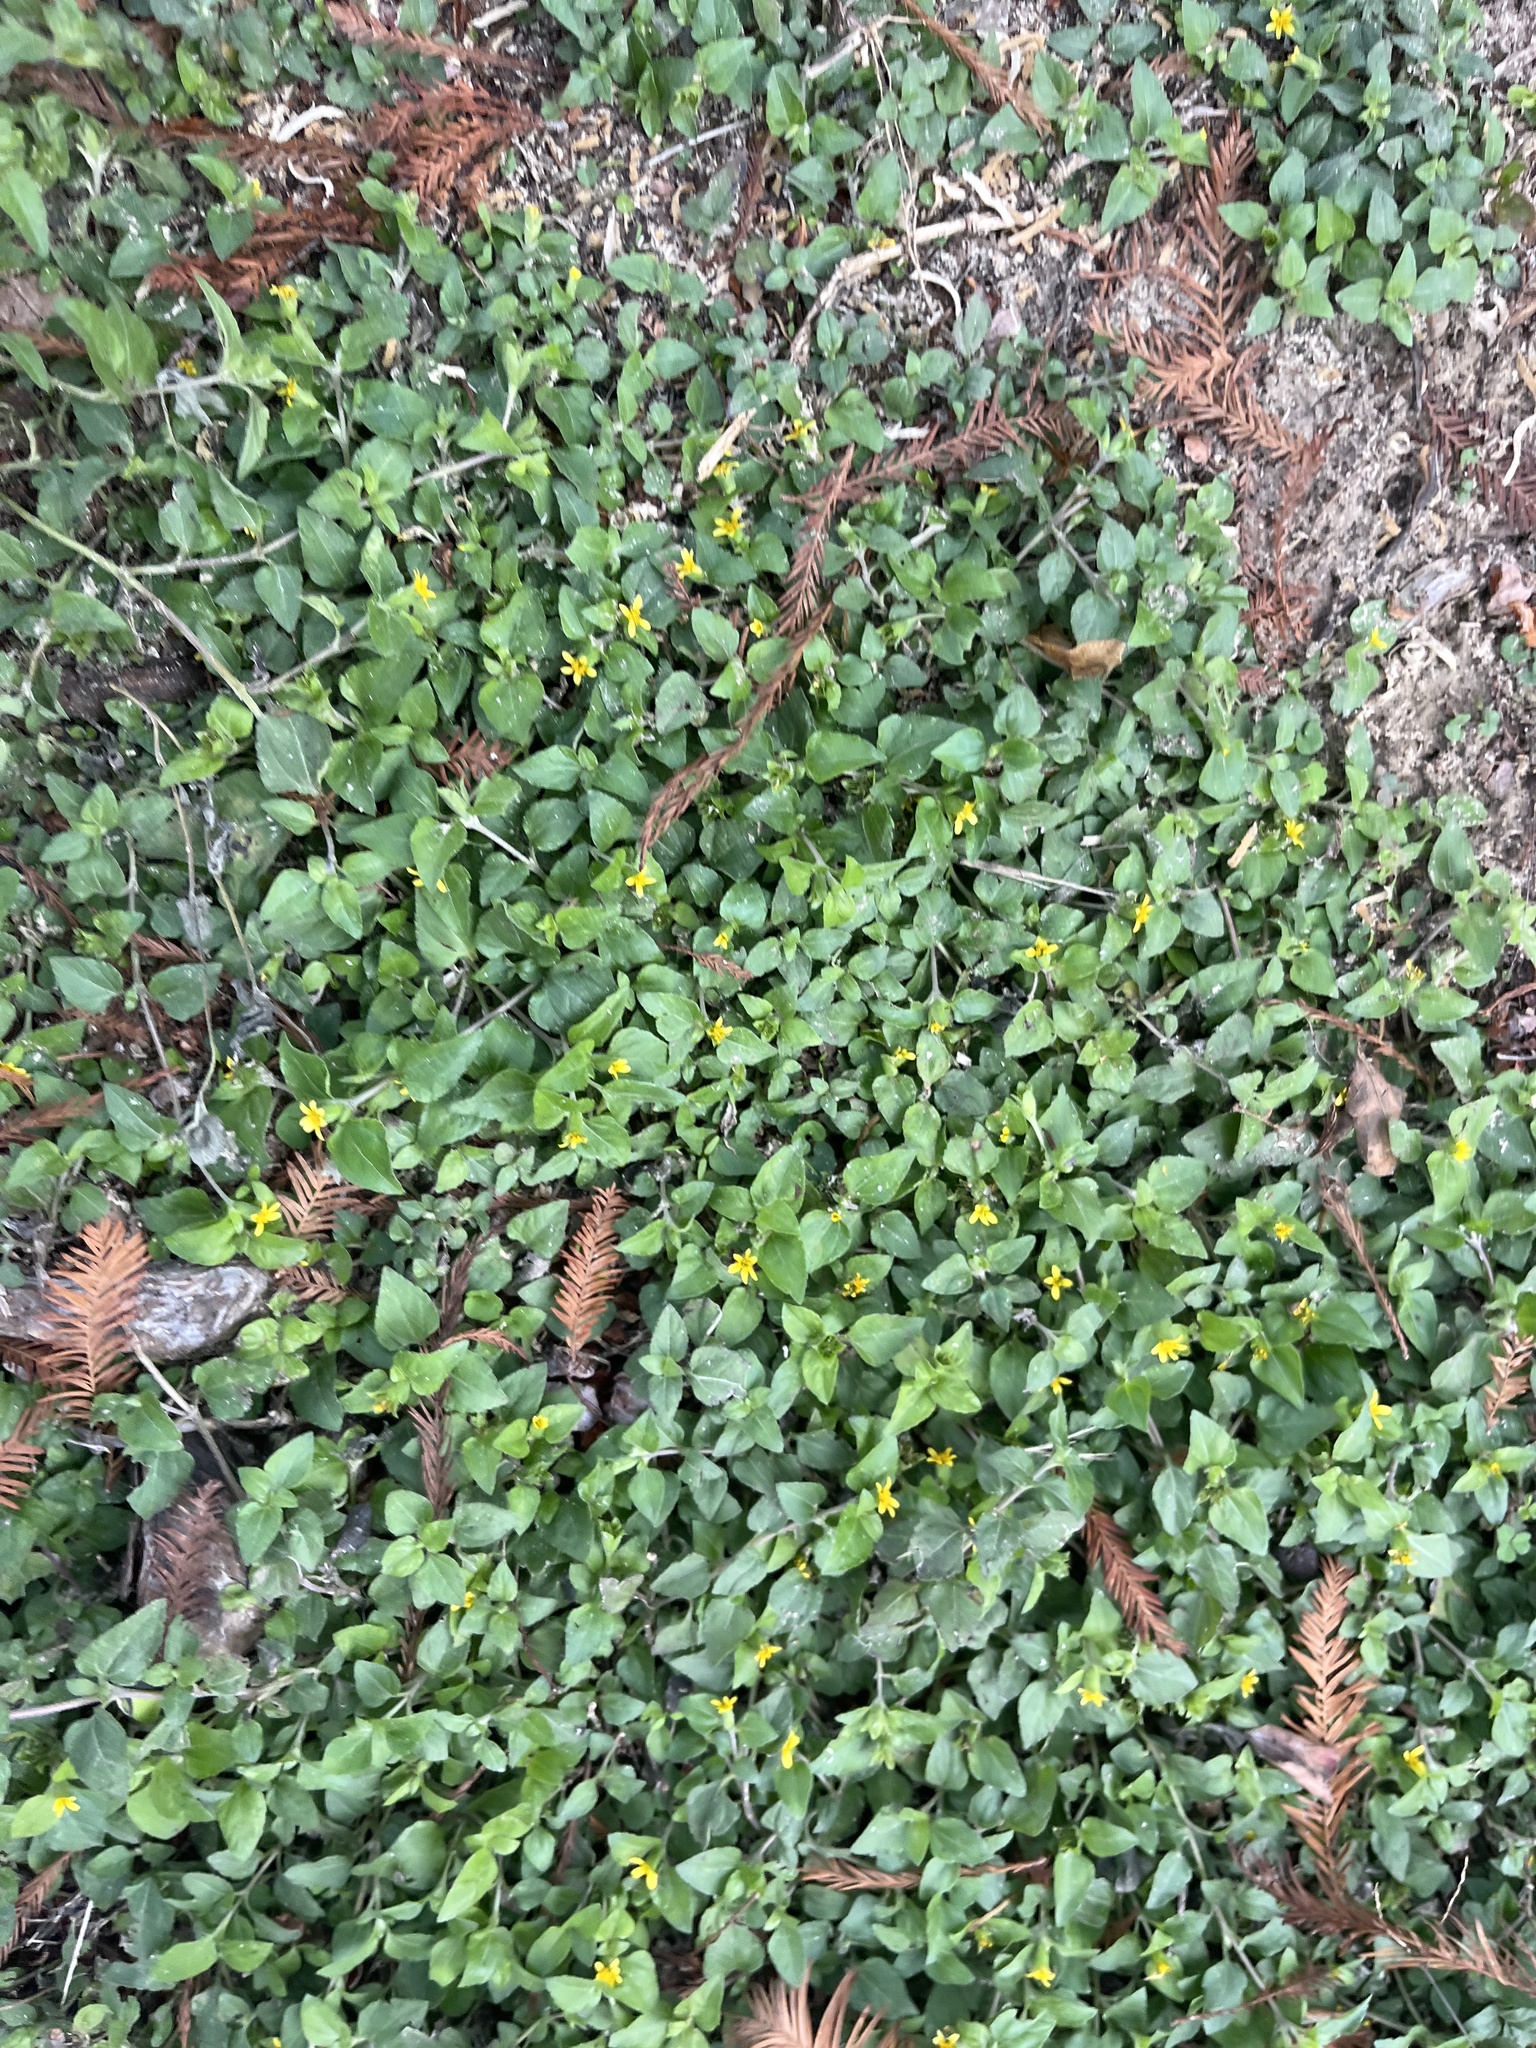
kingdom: Plantae
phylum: Tracheophyta
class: Magnoliopsida
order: Asterales
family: Asteraceae
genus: Calyptocarpus
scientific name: Calyptocarpus vialis
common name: Straggler daisy
